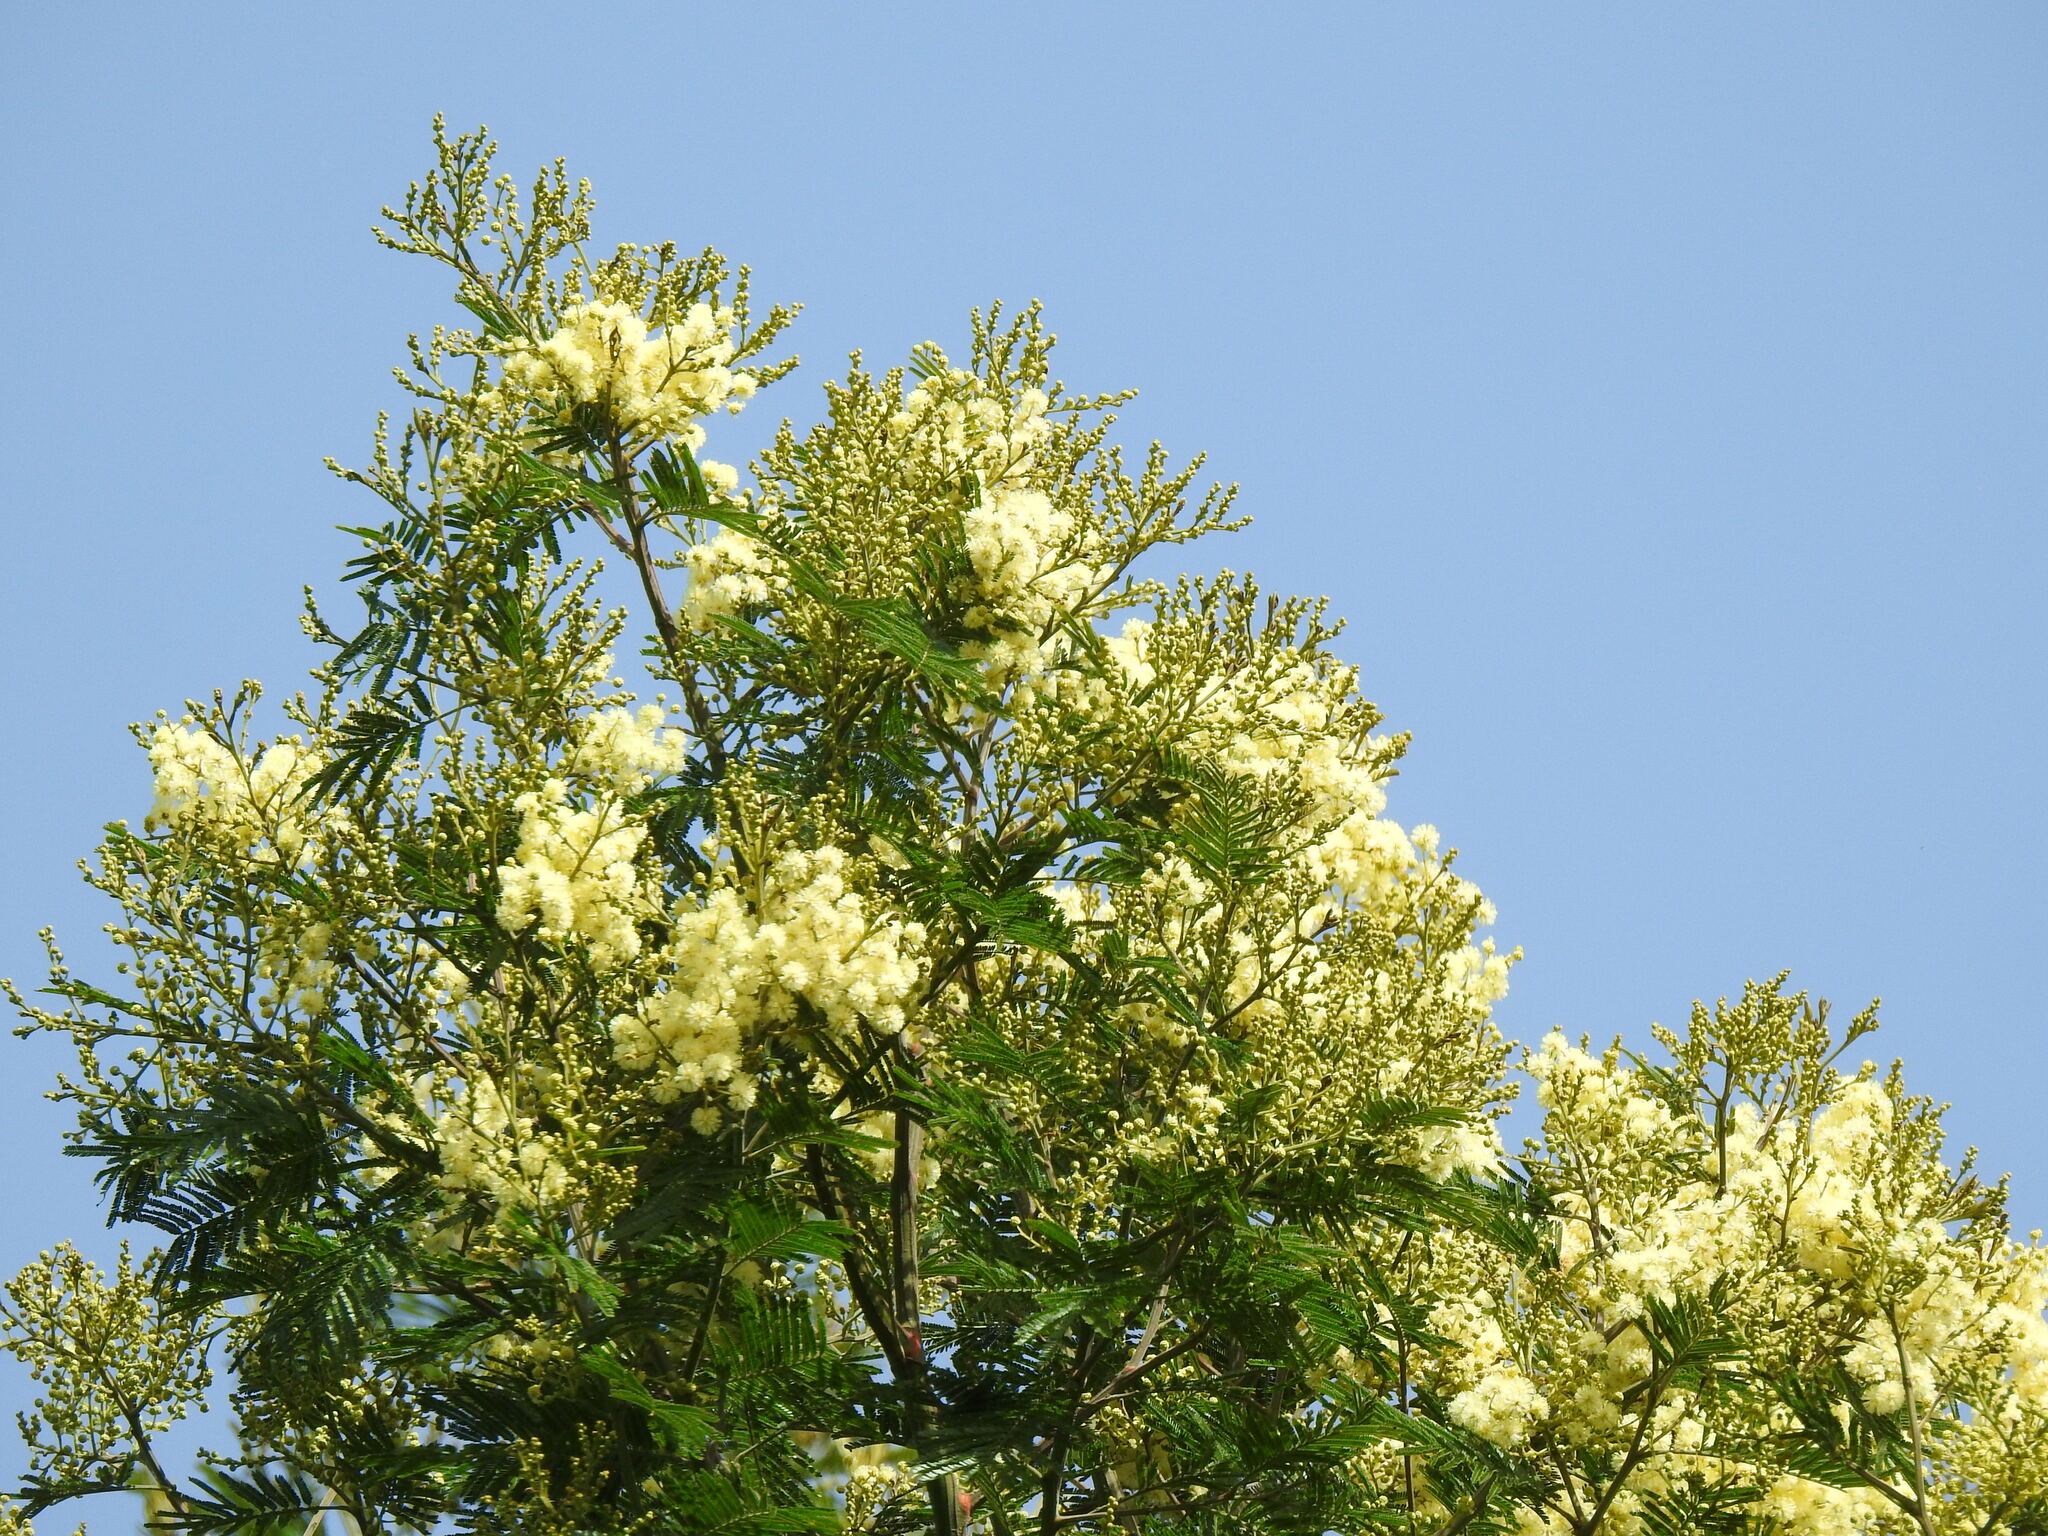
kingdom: Plantae
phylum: Tracheophyta
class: Magnoliopsida
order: Fabales
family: Fabaceae
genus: Acacia
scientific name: Acacia mearnsii
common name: Black wattle
